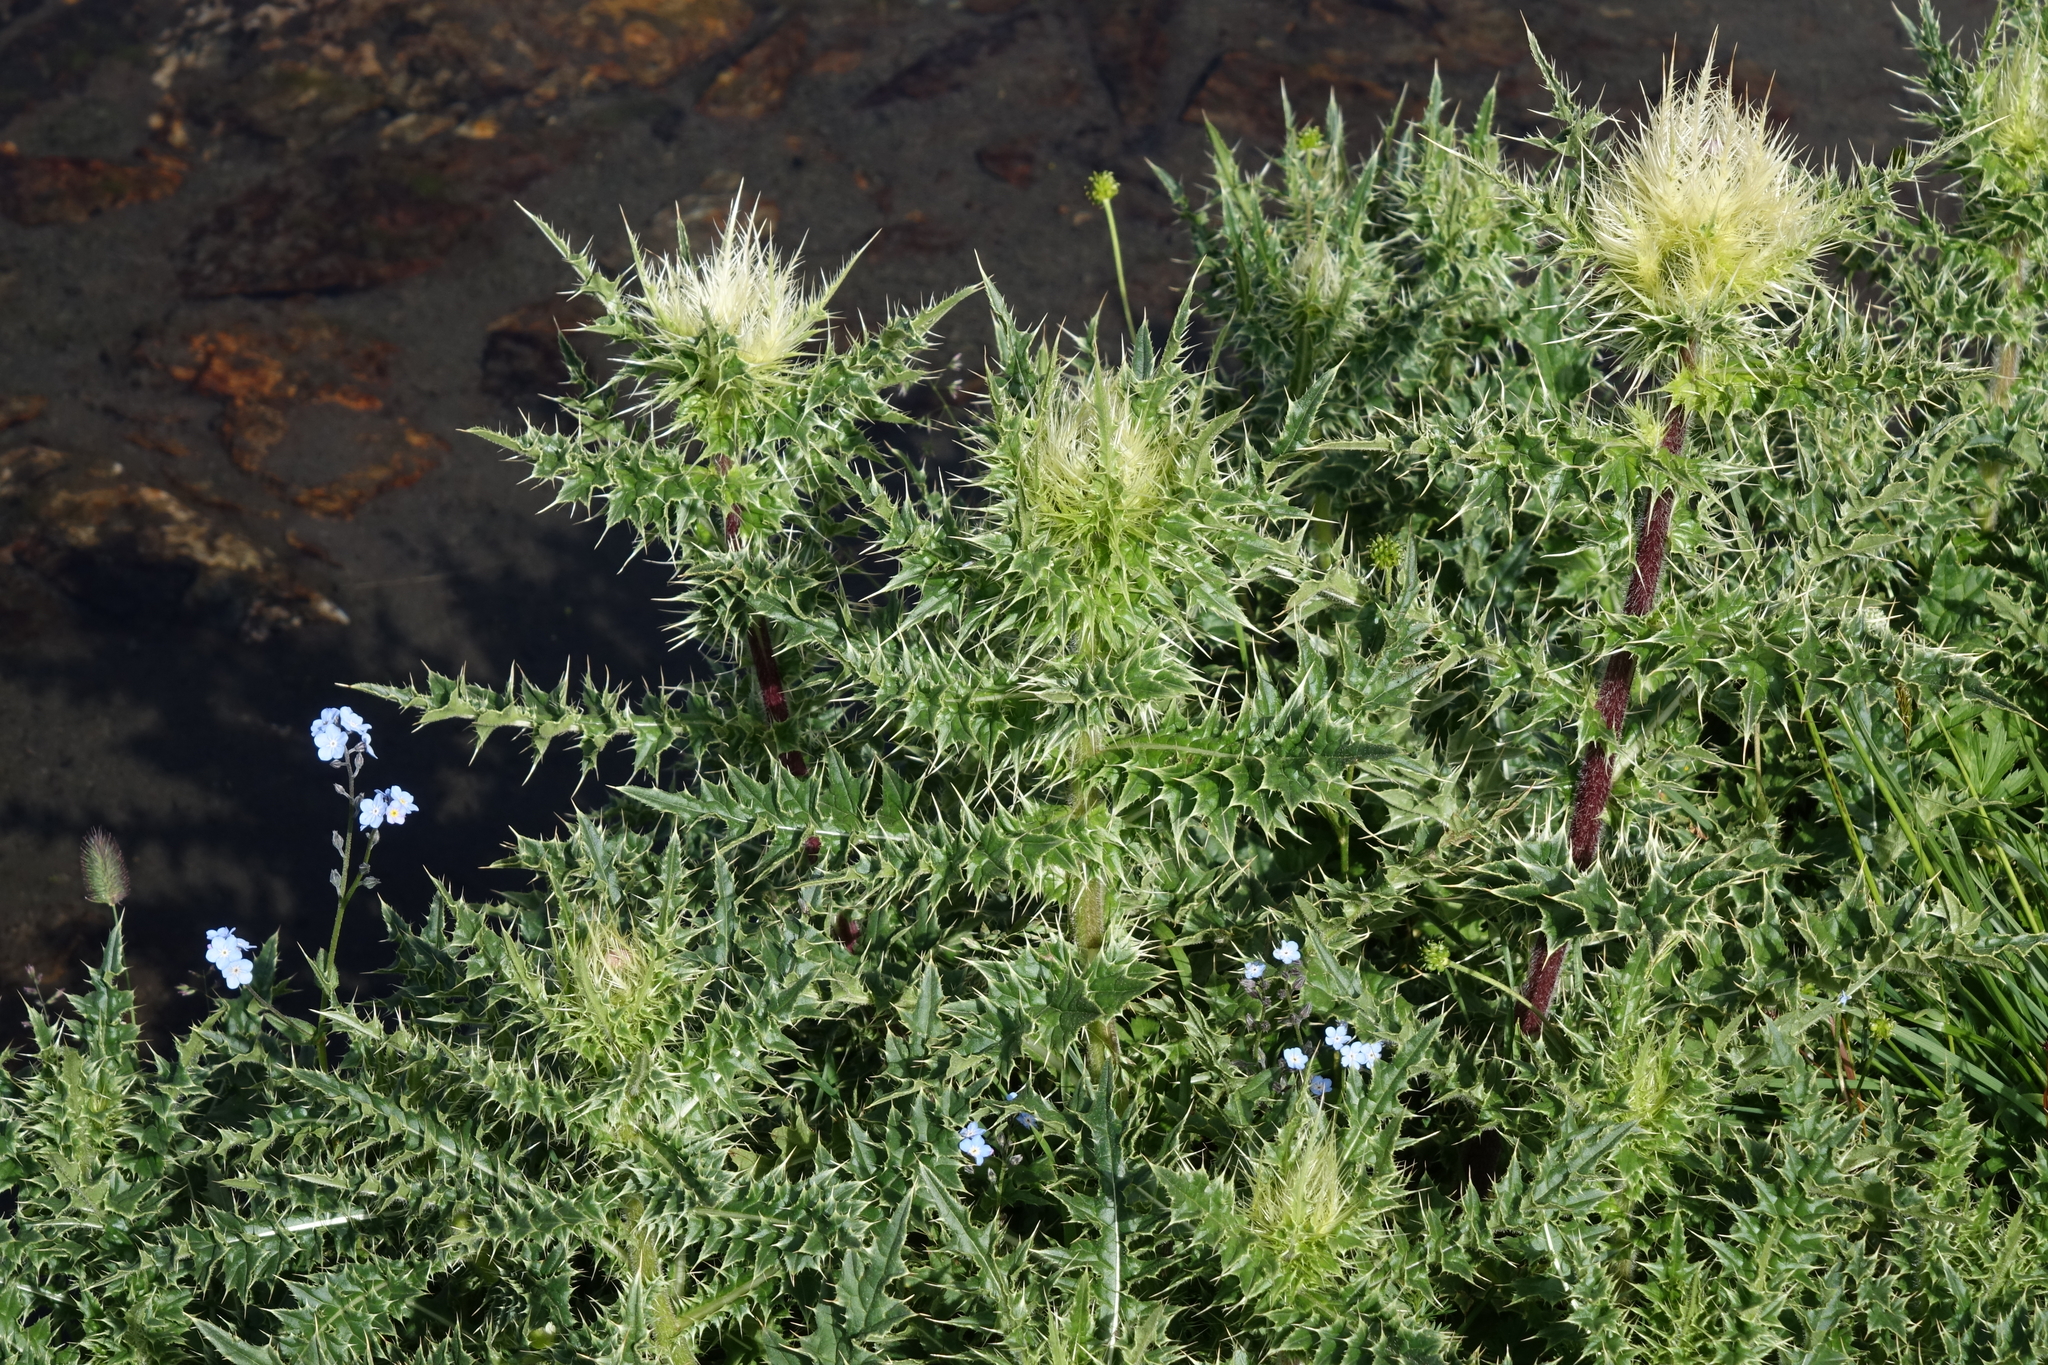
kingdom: Plantae
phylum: Tracheophyta
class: Magnoliopsida
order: Asterales
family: Asteraceae
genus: Cirsium
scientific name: Cirsium obvallatum
